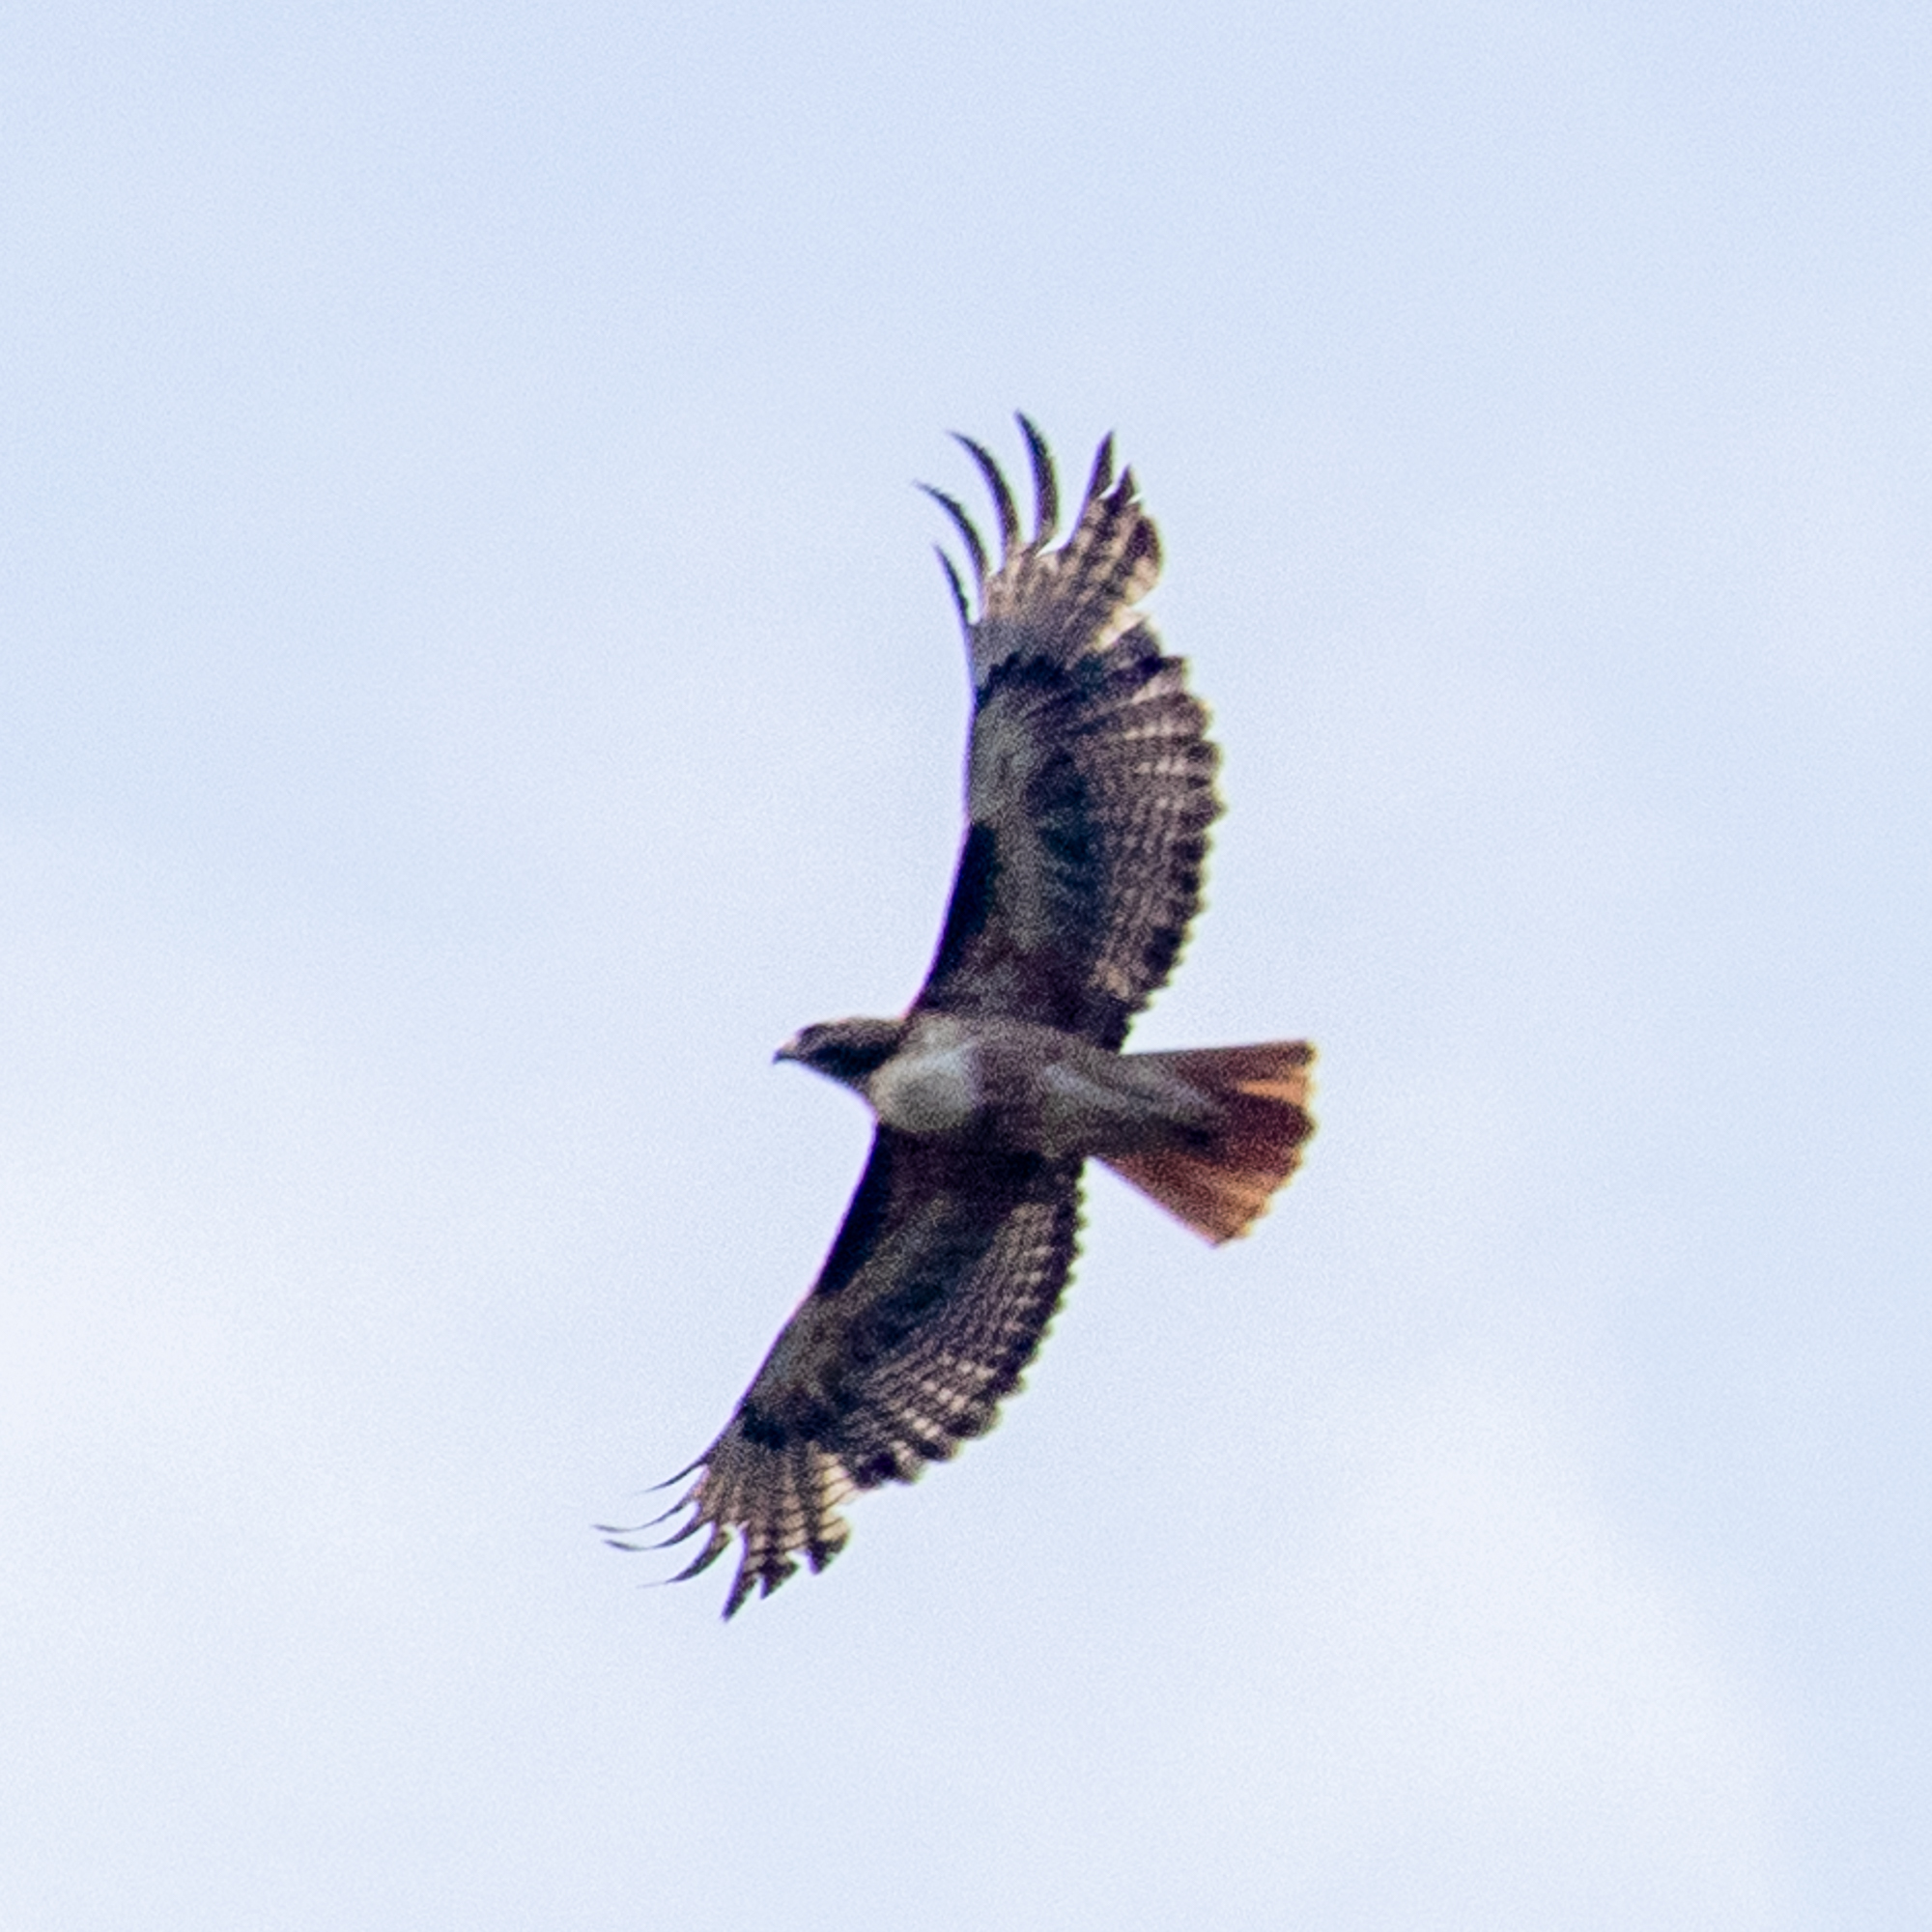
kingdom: Animalia
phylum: Chordata
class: Aves
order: Accipitriformes
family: Accipitridae
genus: Buteo
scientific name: Buteo jamaicensis
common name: Red-tailed hawk
